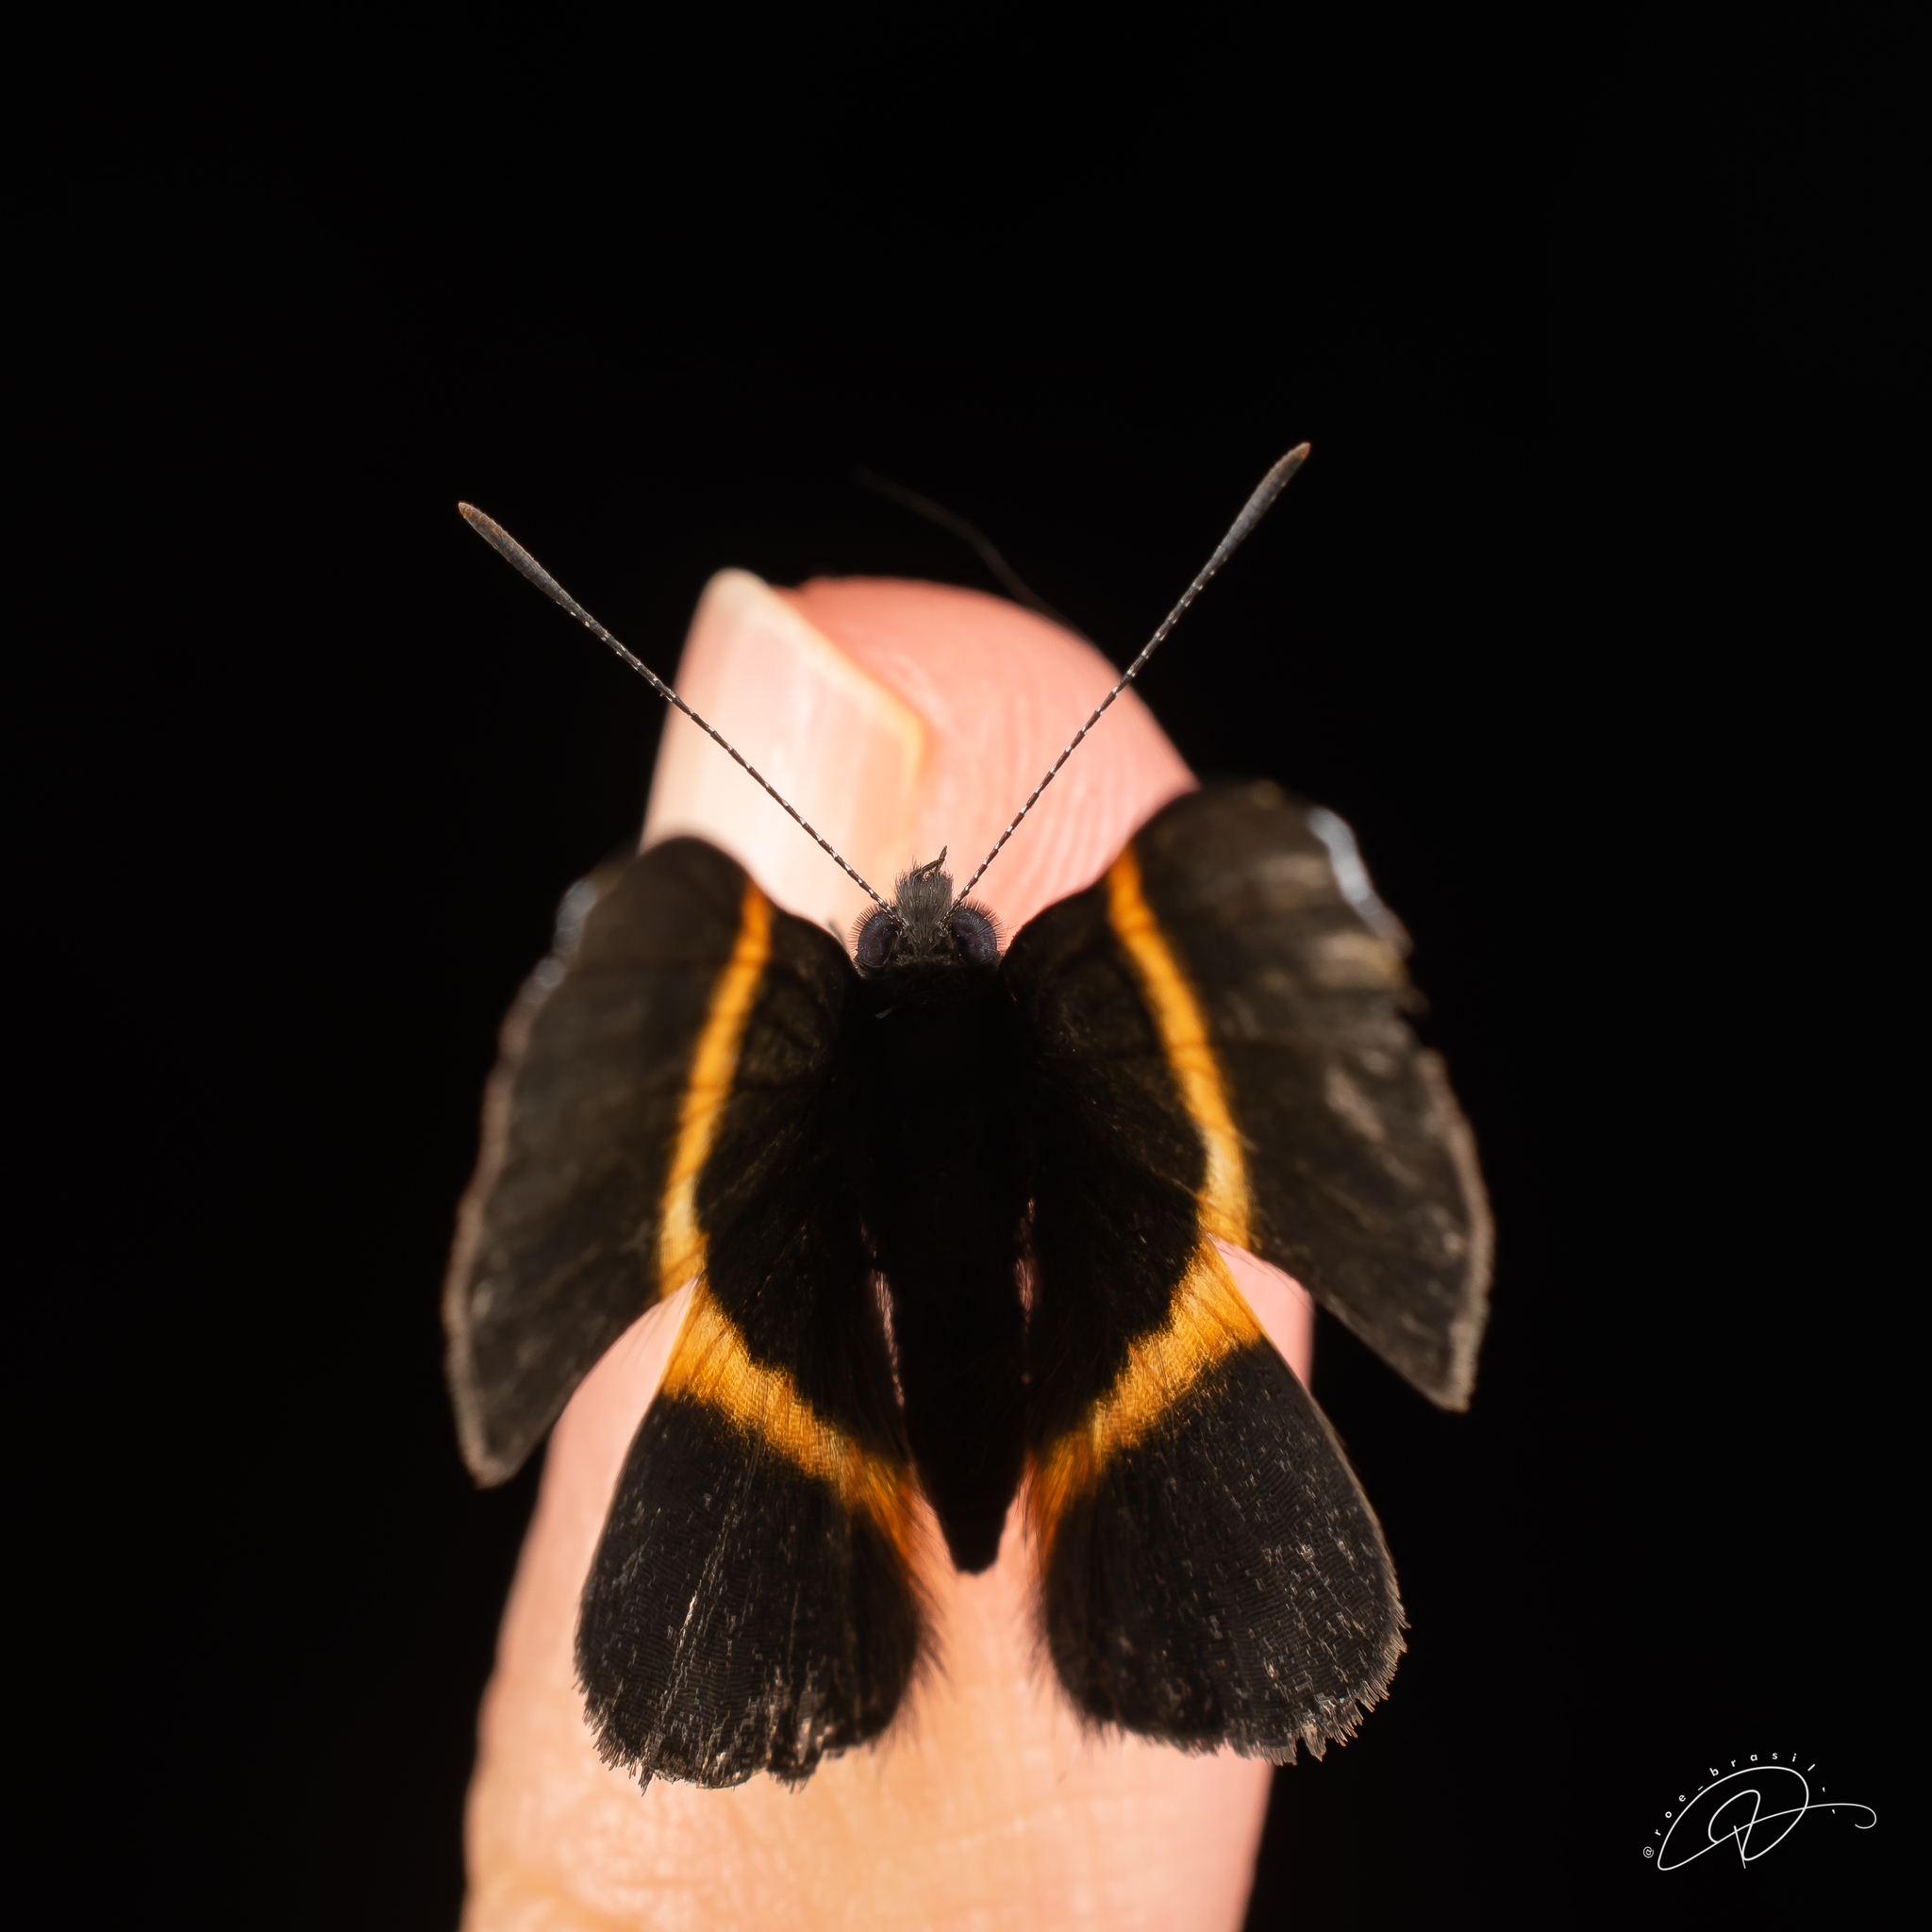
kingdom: Animalia
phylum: Arthropoda
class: Insecta
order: Lepidoptera
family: Riodinidae
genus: Parcella
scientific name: Parcella amarynthina
